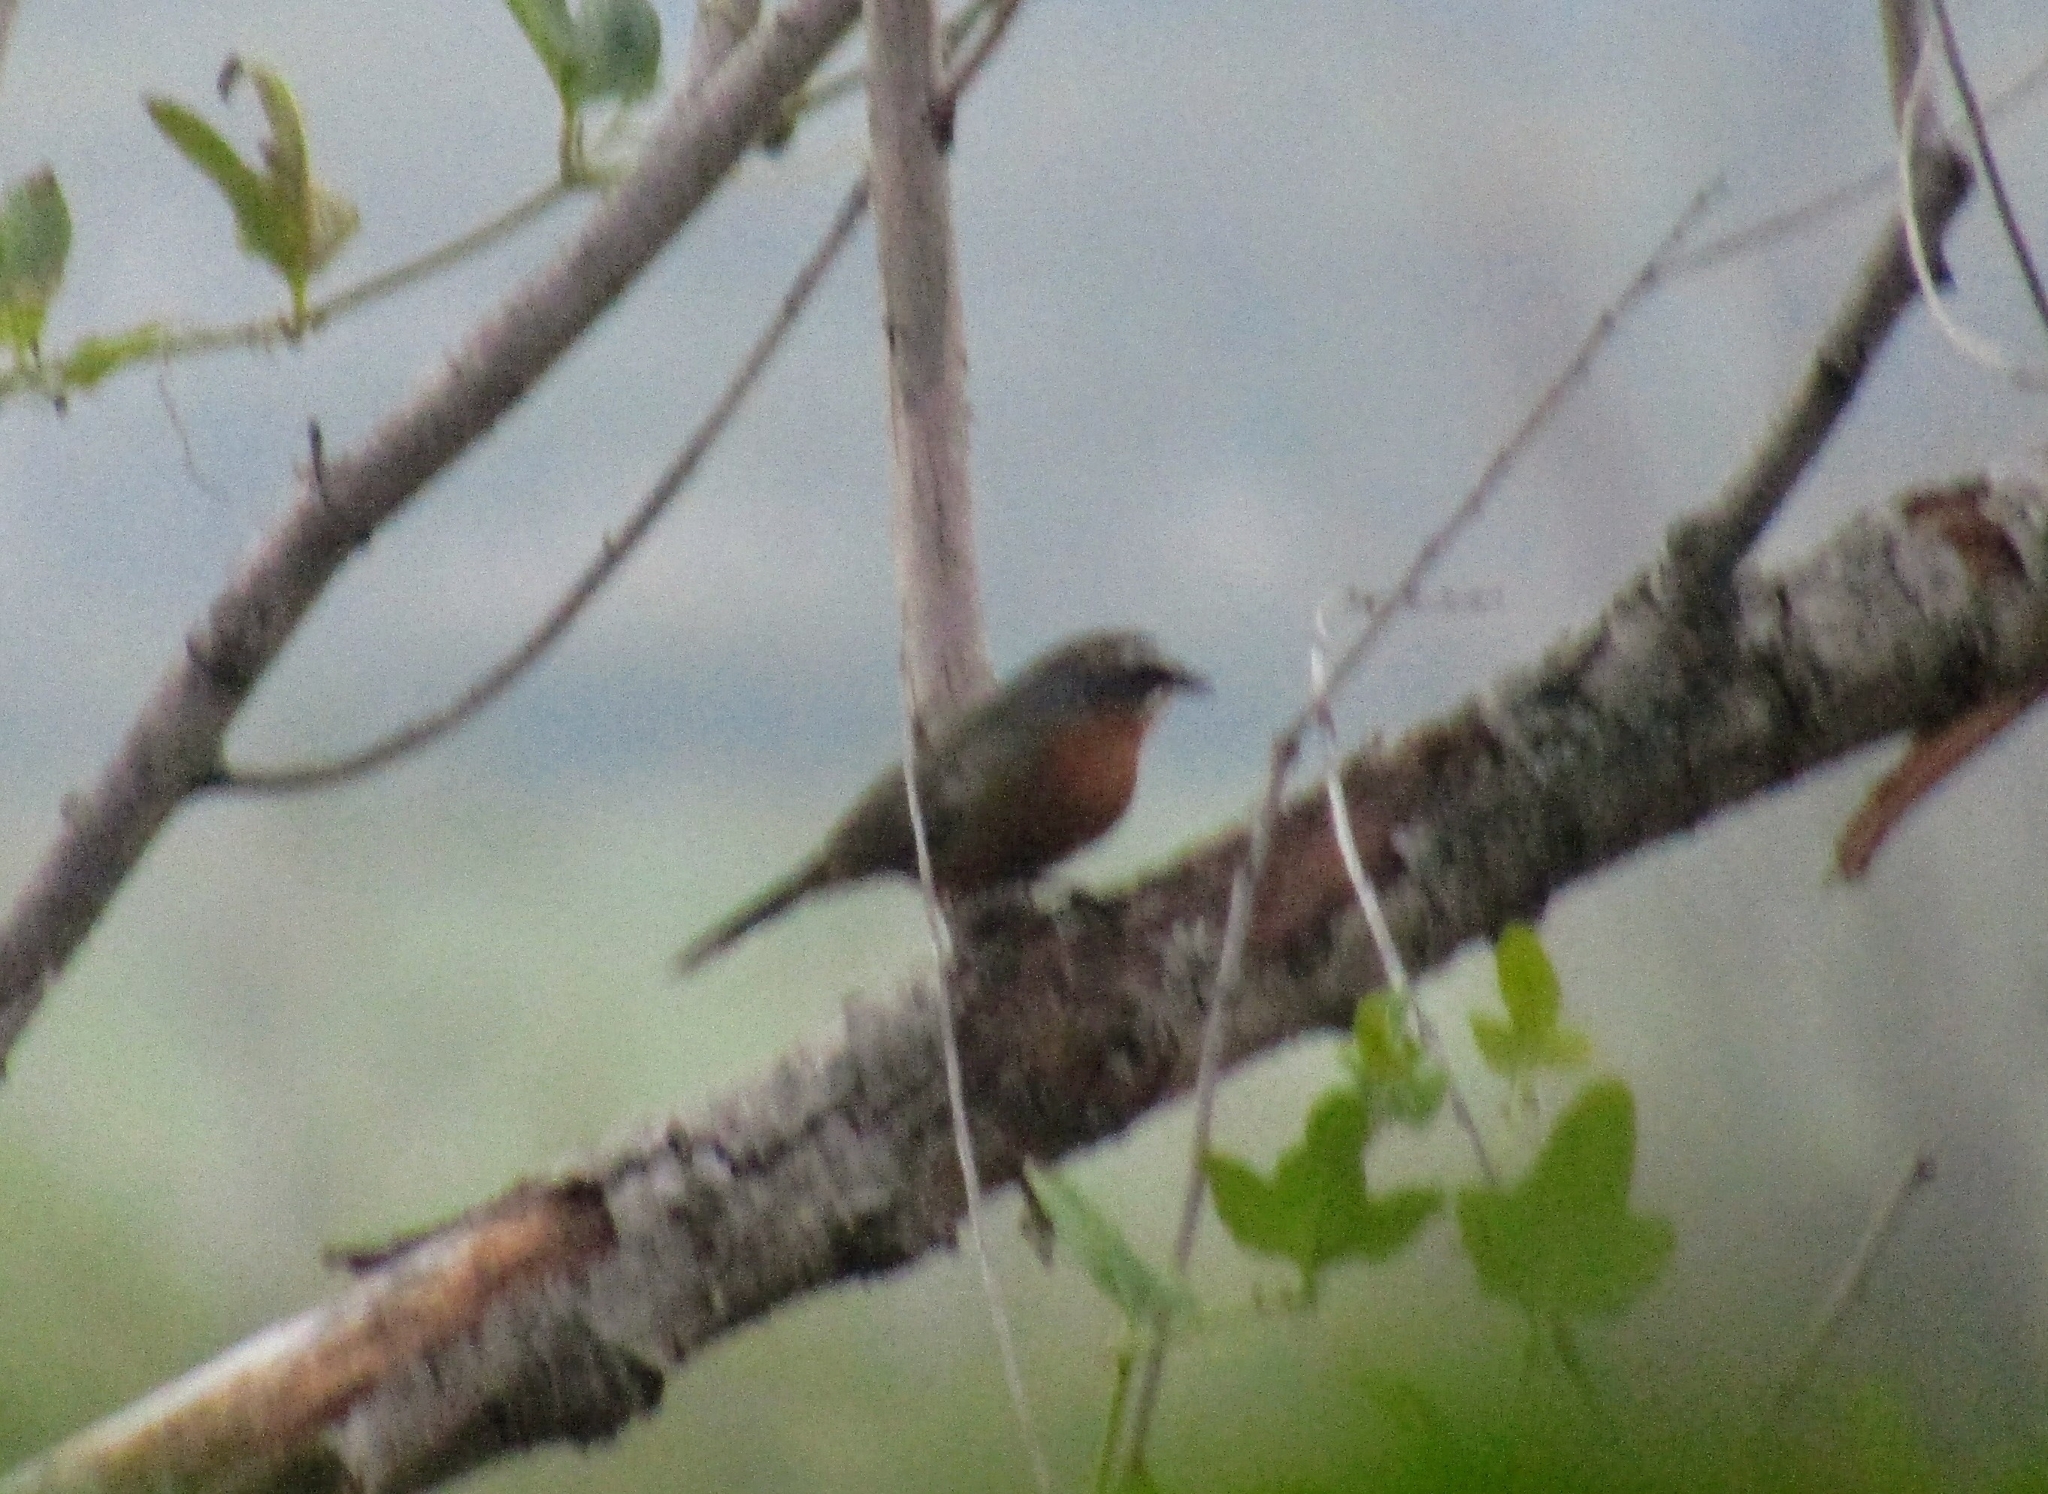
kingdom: Animalia
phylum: Chordata
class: Aves
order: Passeriformes
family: Thraupidae
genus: Poospiza
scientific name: Poospiza nigrorufa
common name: Black-and-rufous warbling finch
